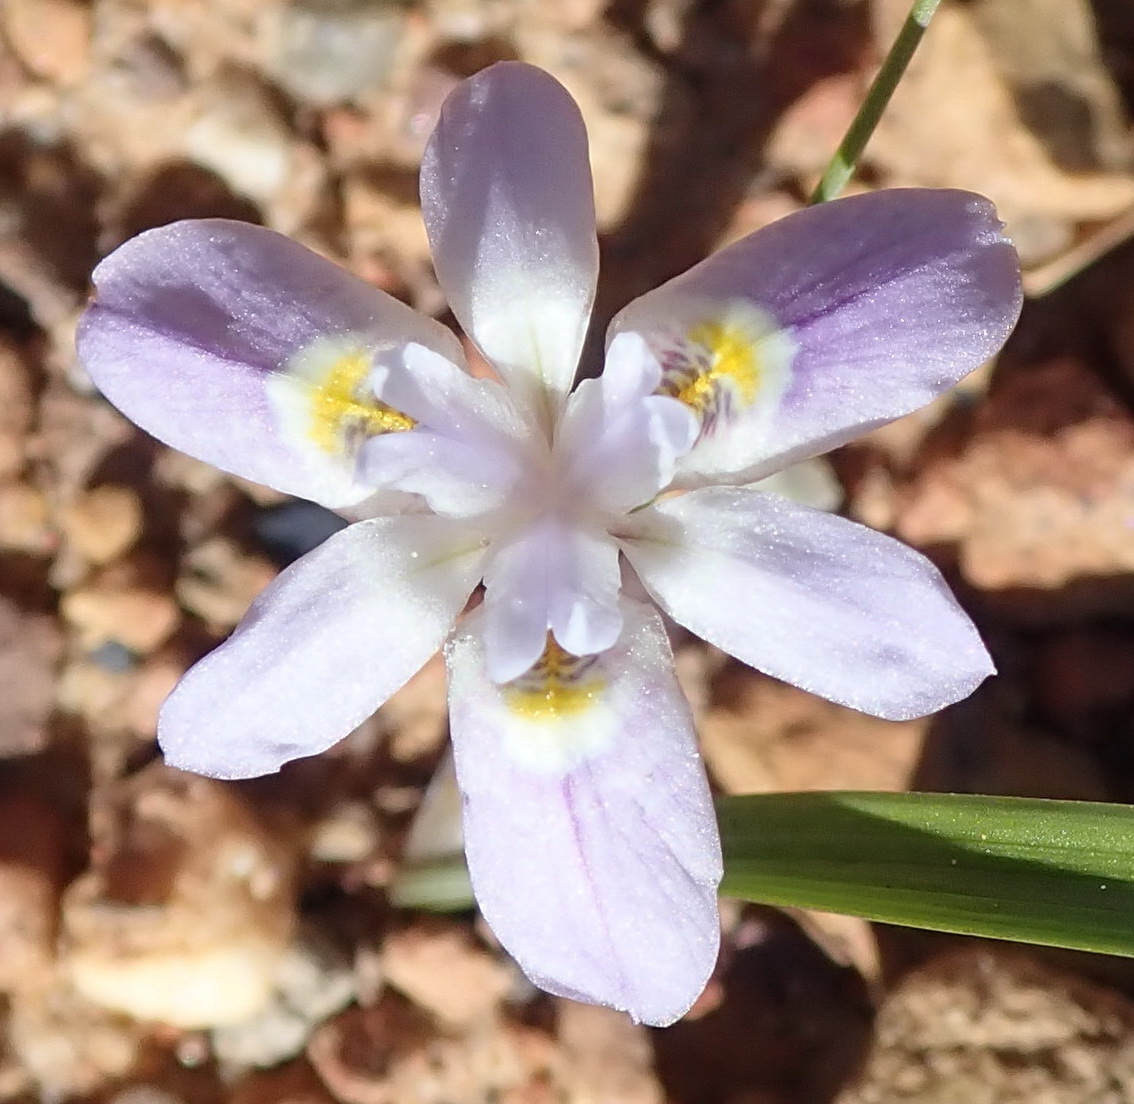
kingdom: Plantae
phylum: Tracheophyta
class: Liliopsida
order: Asparagales
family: Iridaceae
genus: Moraea
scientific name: Moraea setifolia
